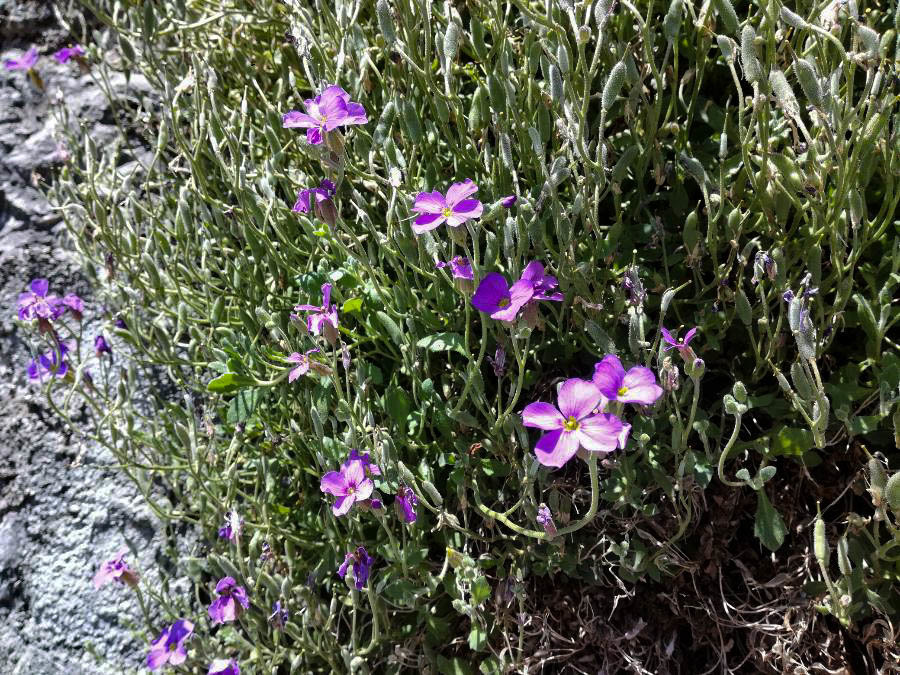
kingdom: Plantae
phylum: Tracheophyta
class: Magnoliopsida
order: Brassicales
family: Brassicaceae
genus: Aubrieta
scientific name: Aubrieta deltoidea
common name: Aubretia
